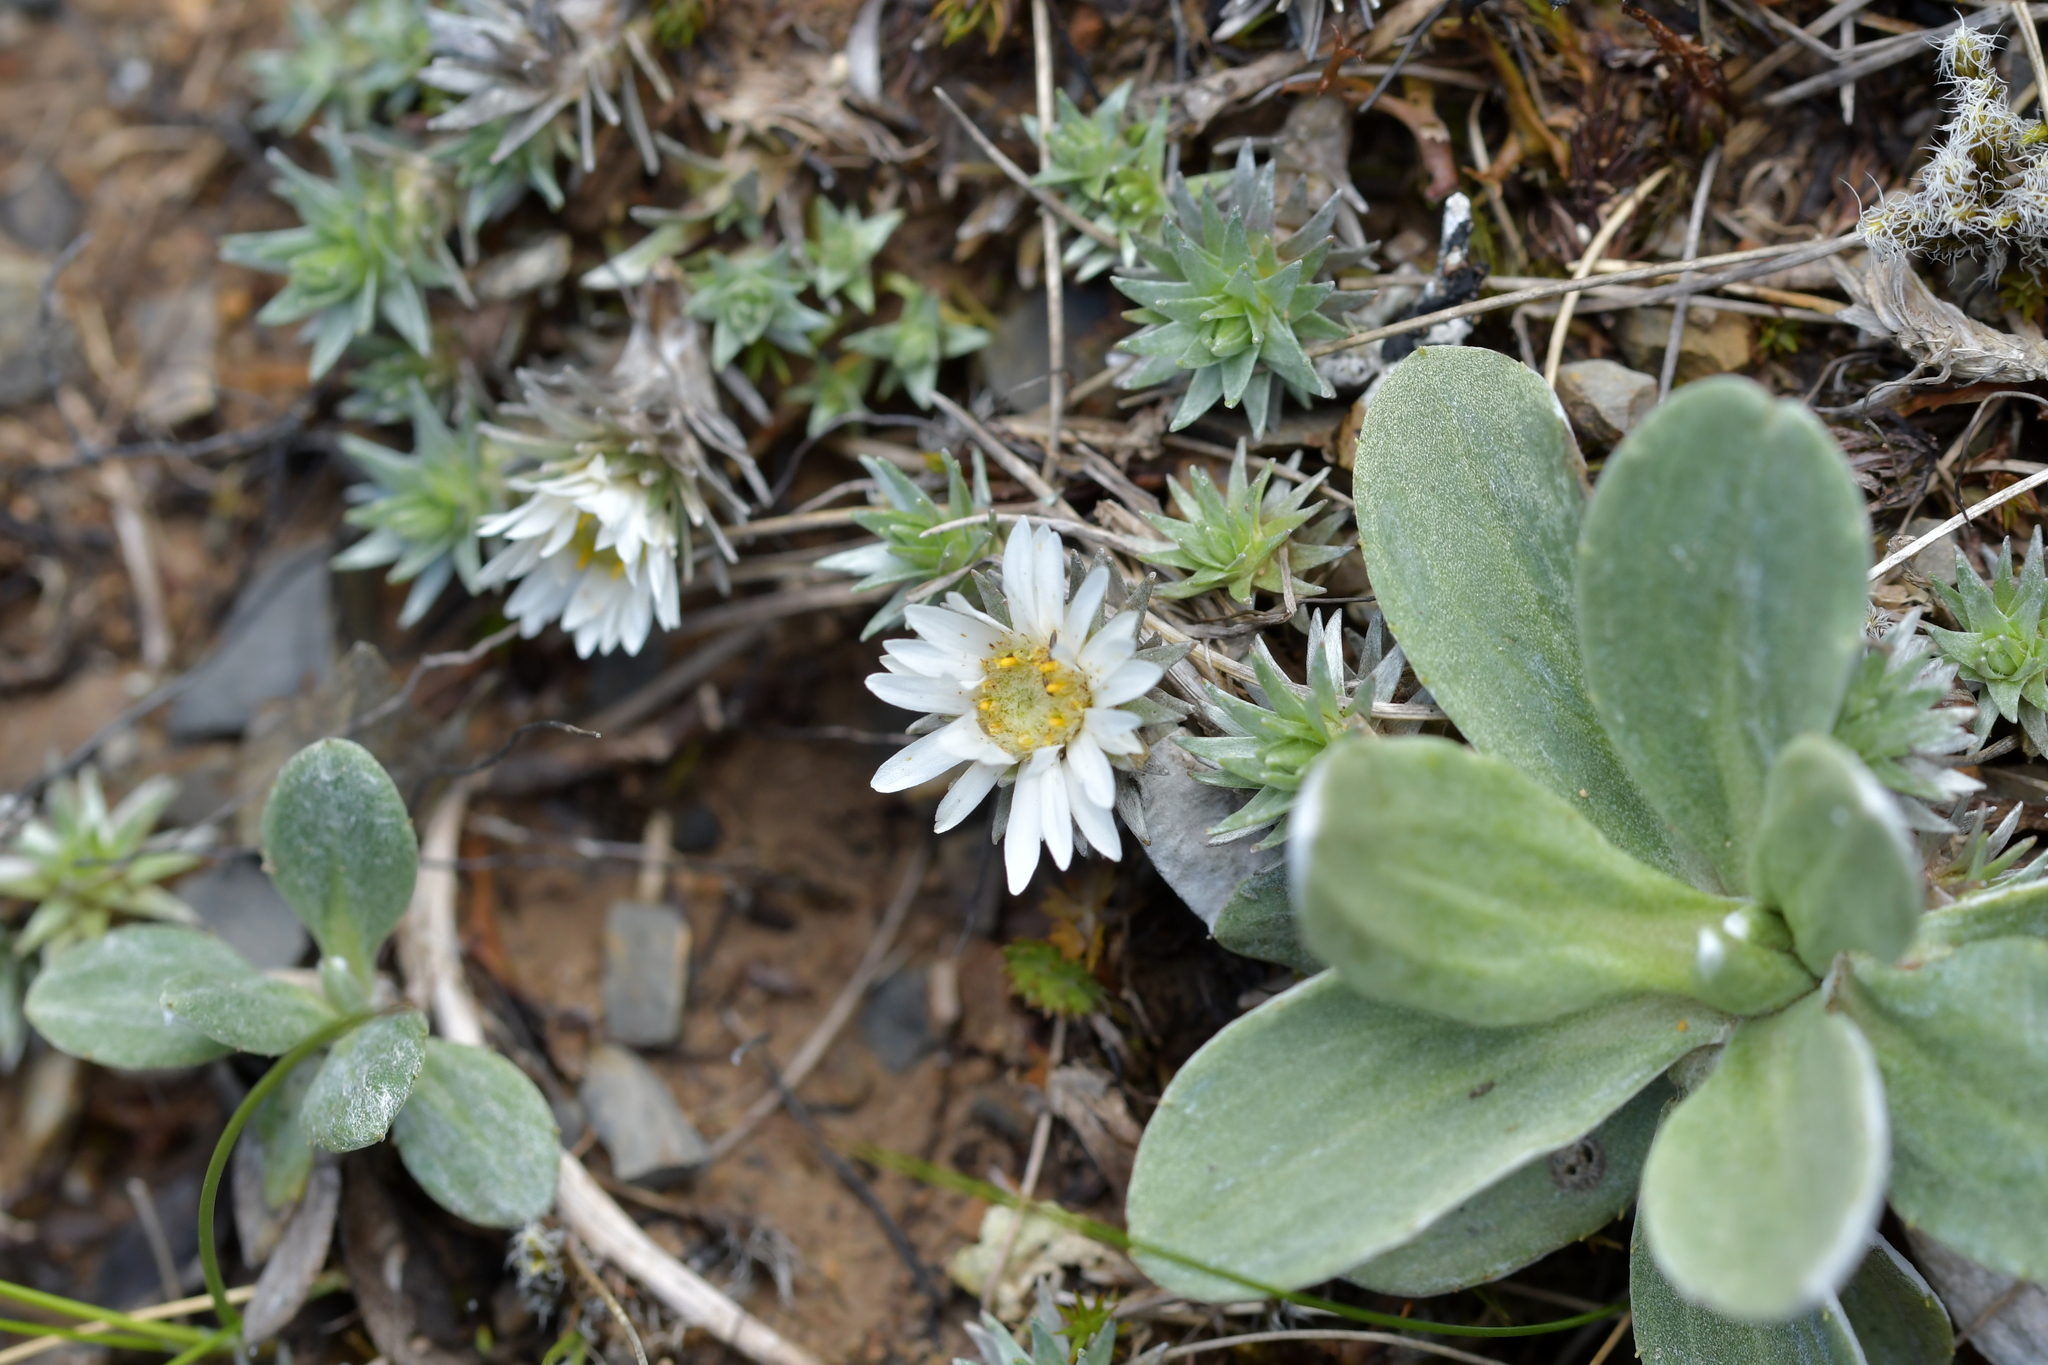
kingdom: Plantae
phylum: Tracheophyta
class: Magnoliopsida
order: Asterales
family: Asteraceae
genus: Raoulia
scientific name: Raoulia grandiflora
